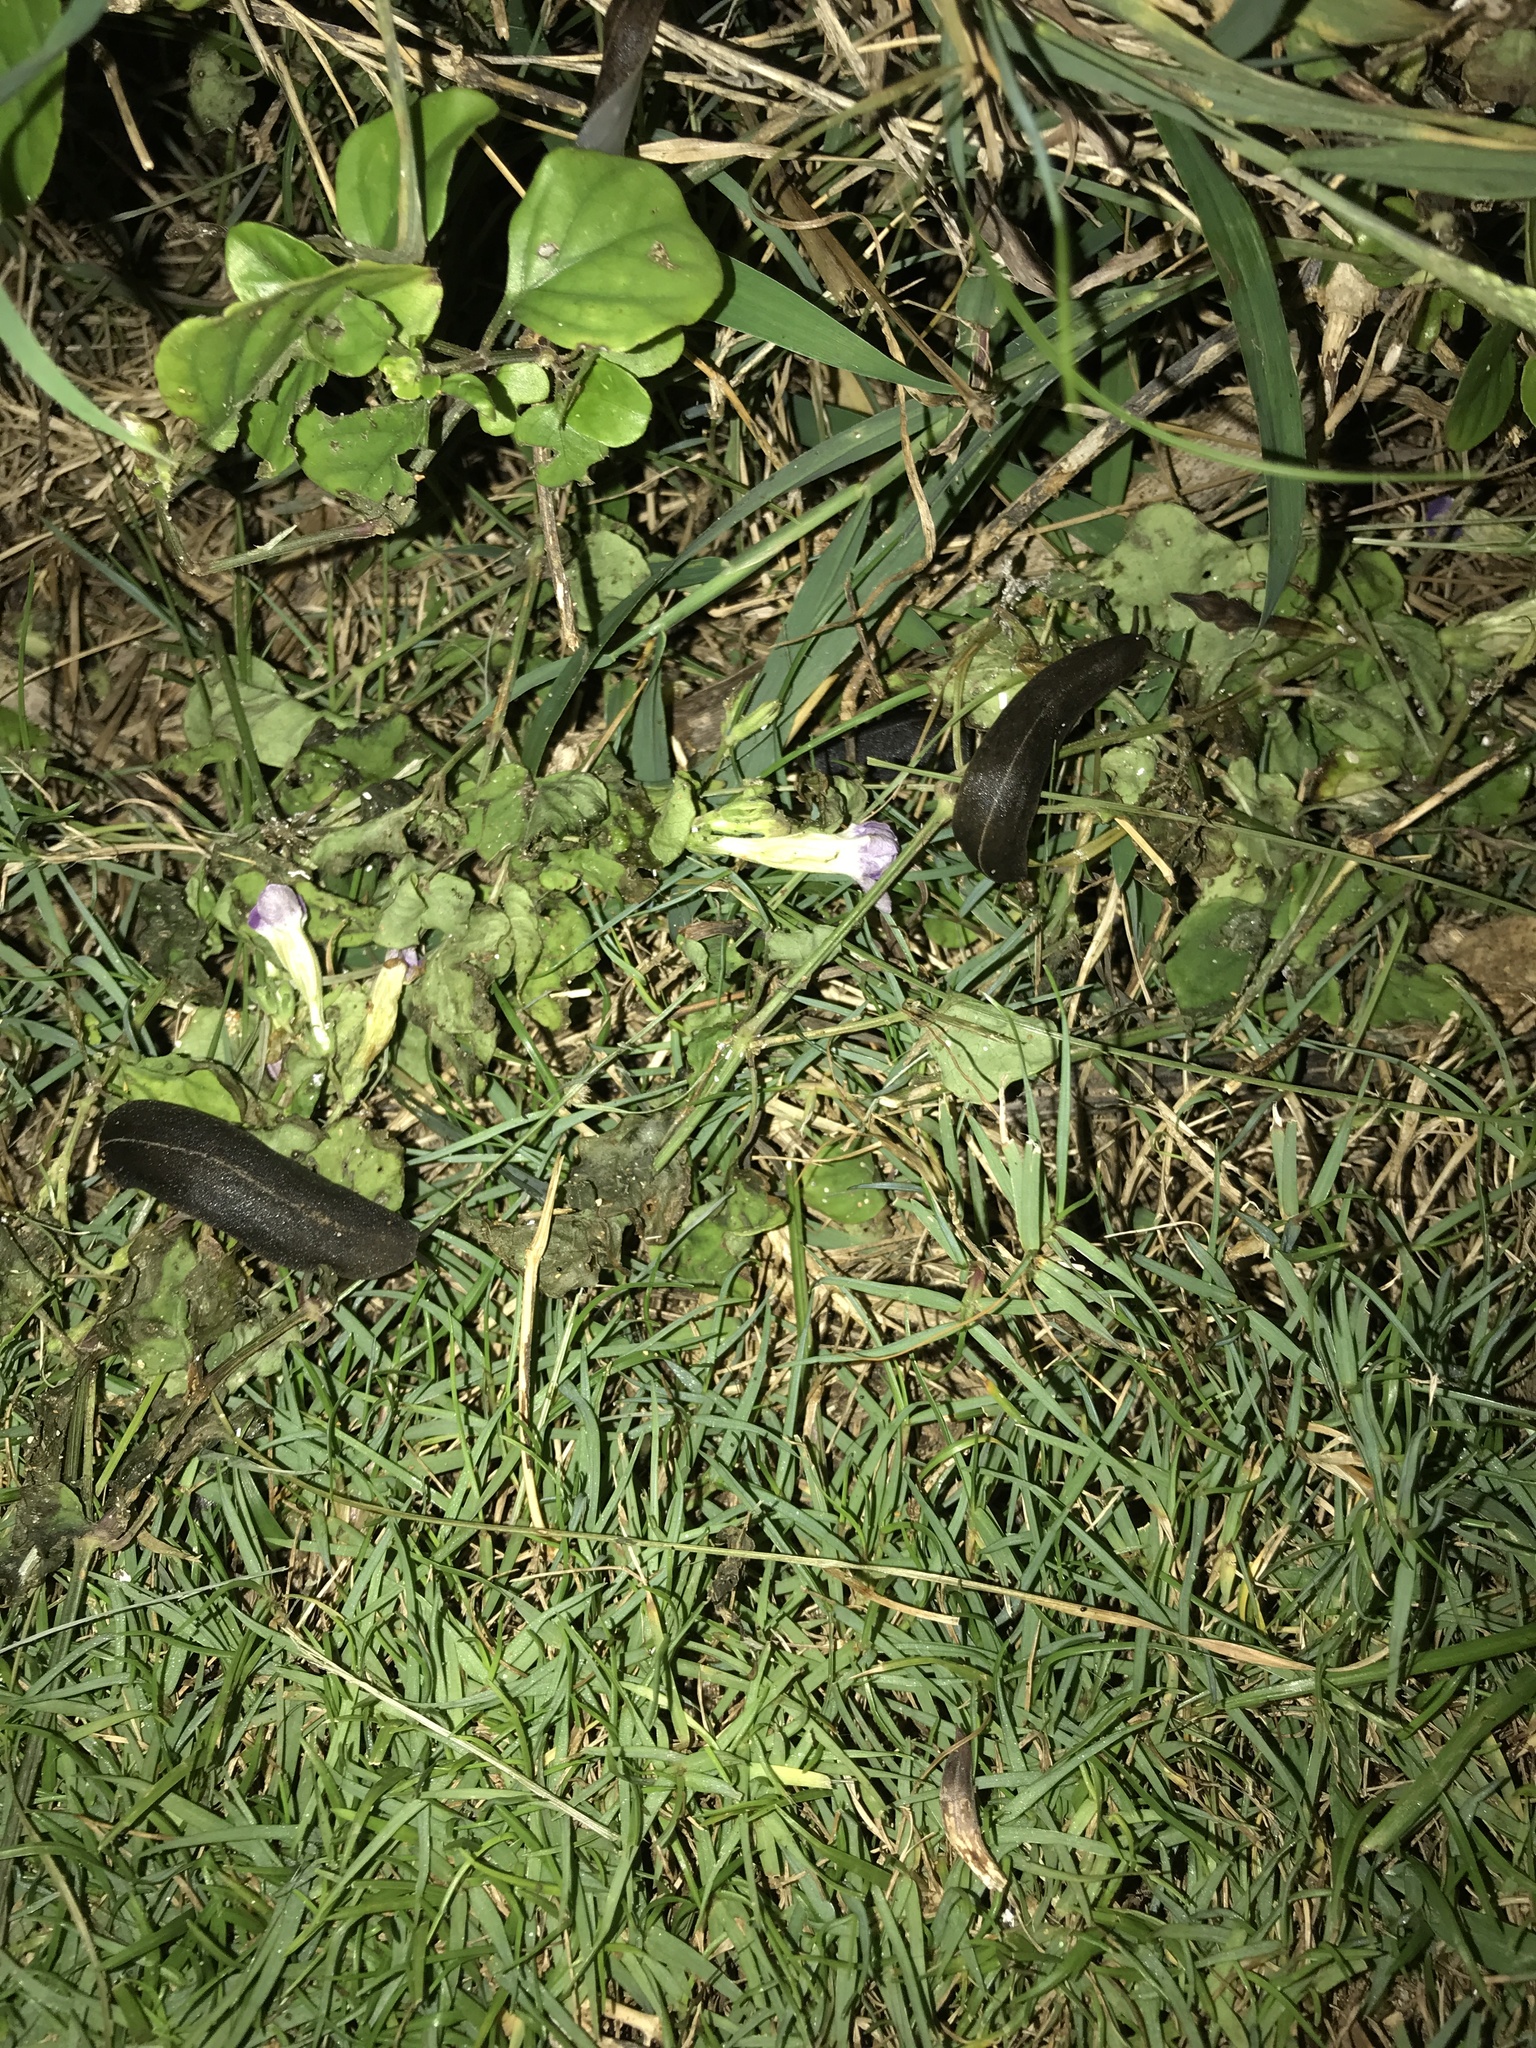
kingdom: Animalia
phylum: Mollusca
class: Gastropoda
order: Systellommatophora
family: Veronicellidae
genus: Laevicaulis
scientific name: Laevicaulis alte
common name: Tropical leatherleaf
